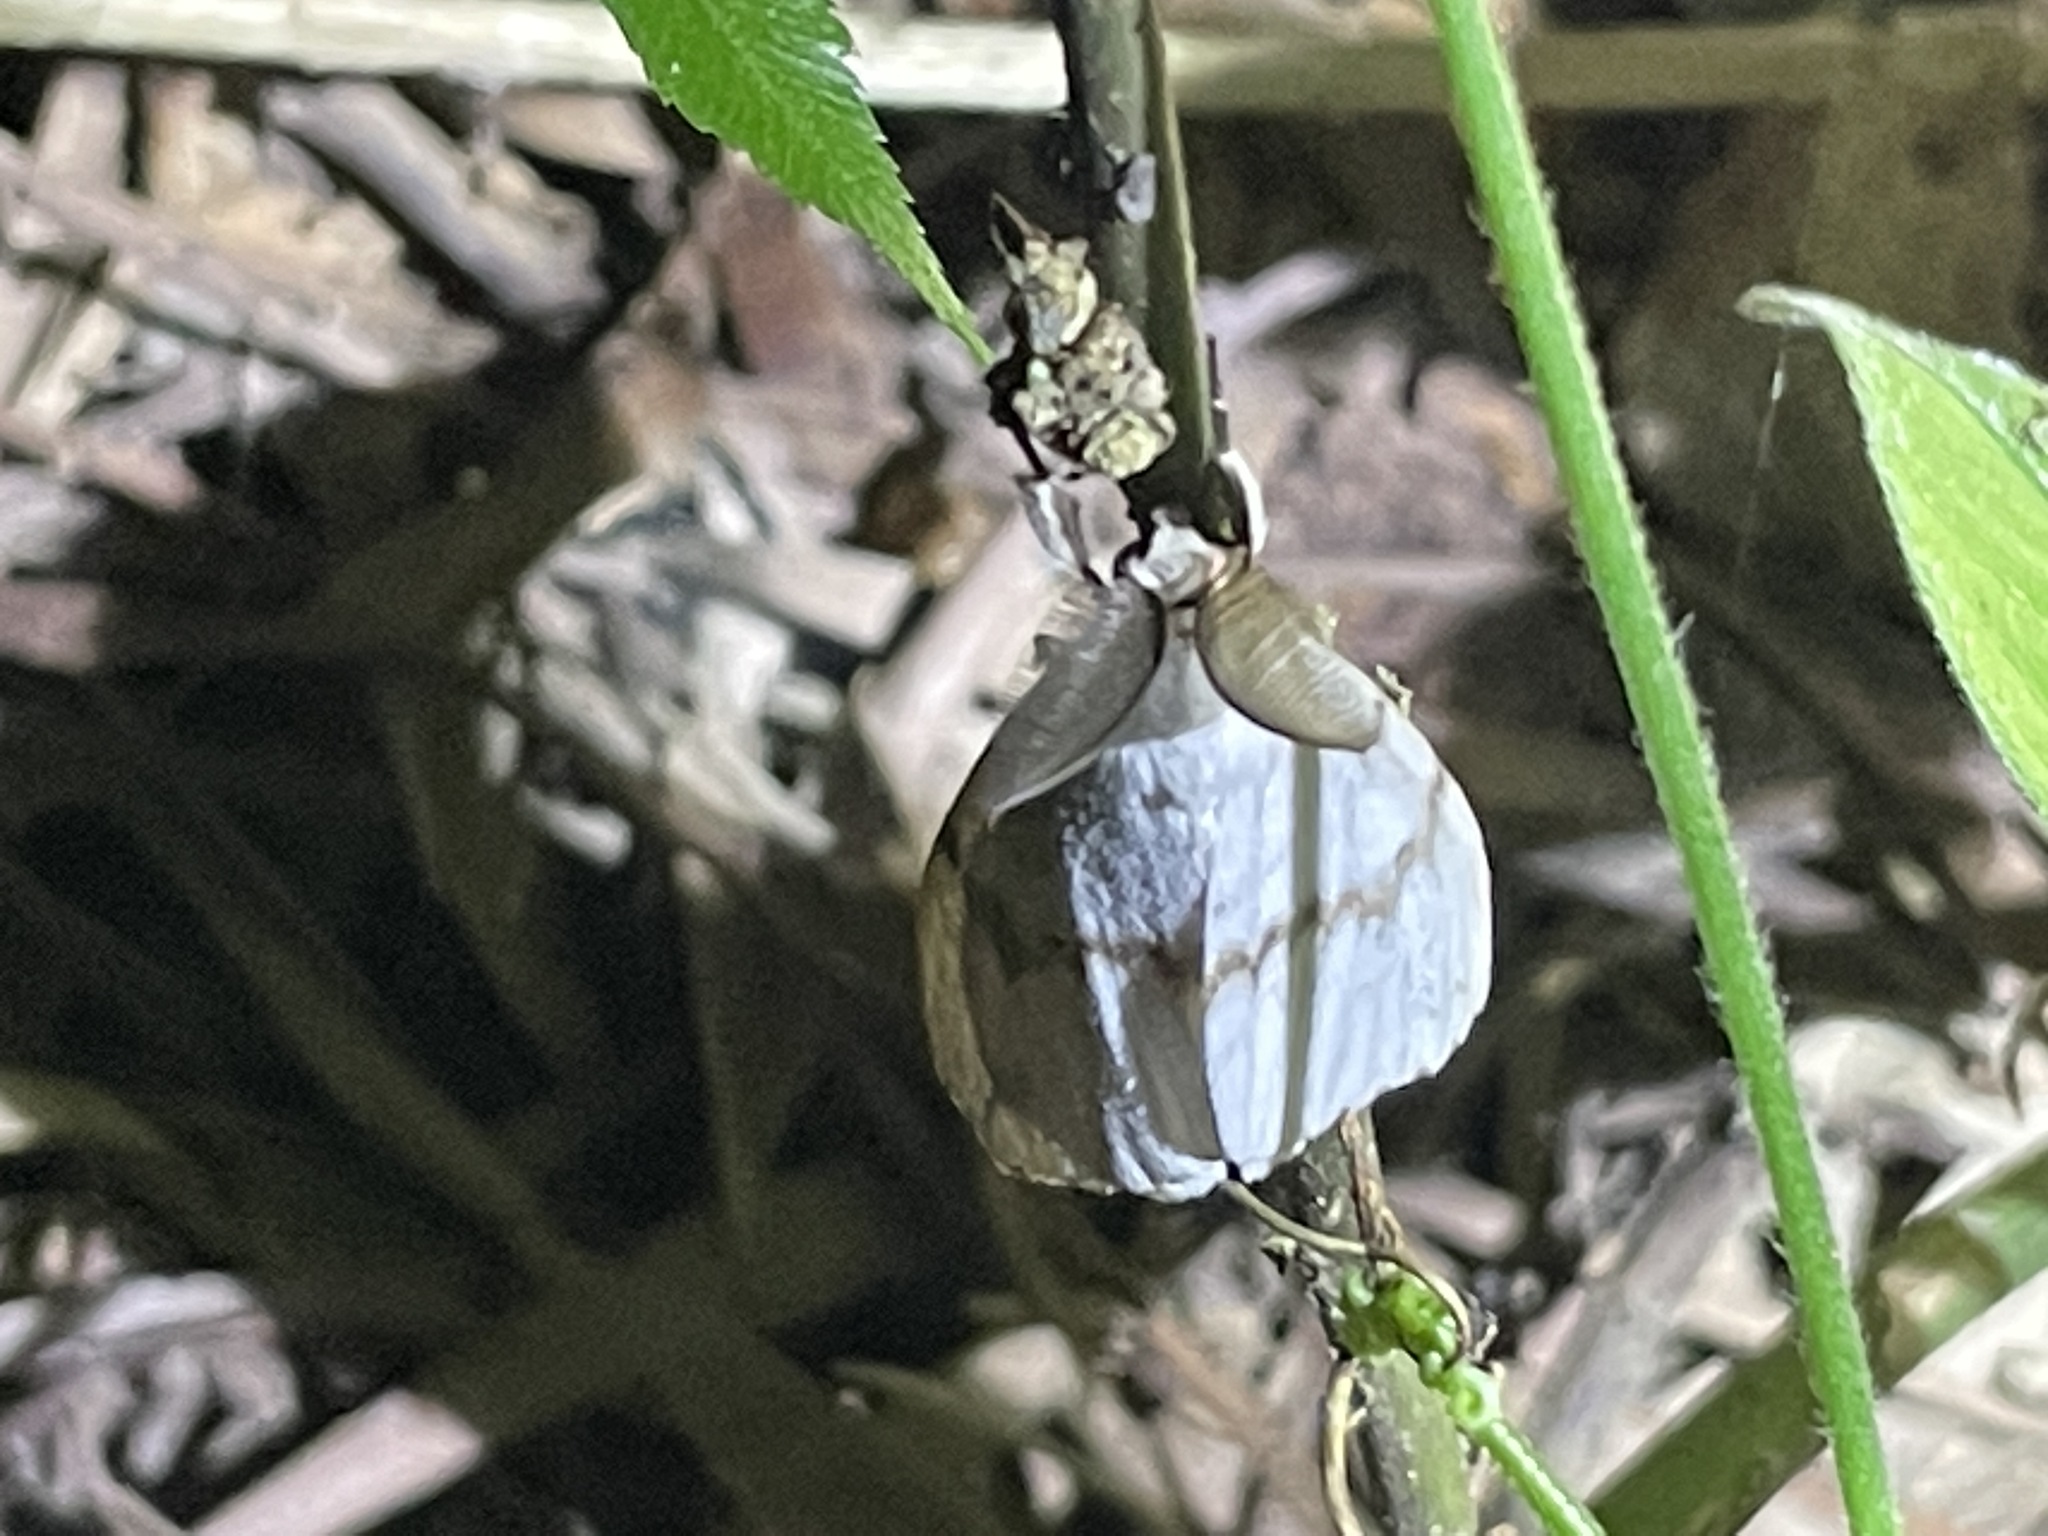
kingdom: Animalia
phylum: Arthropoda
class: Insecta
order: Lepidoptera
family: Erebidae
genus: Lymantria
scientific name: Lymantria xylina
